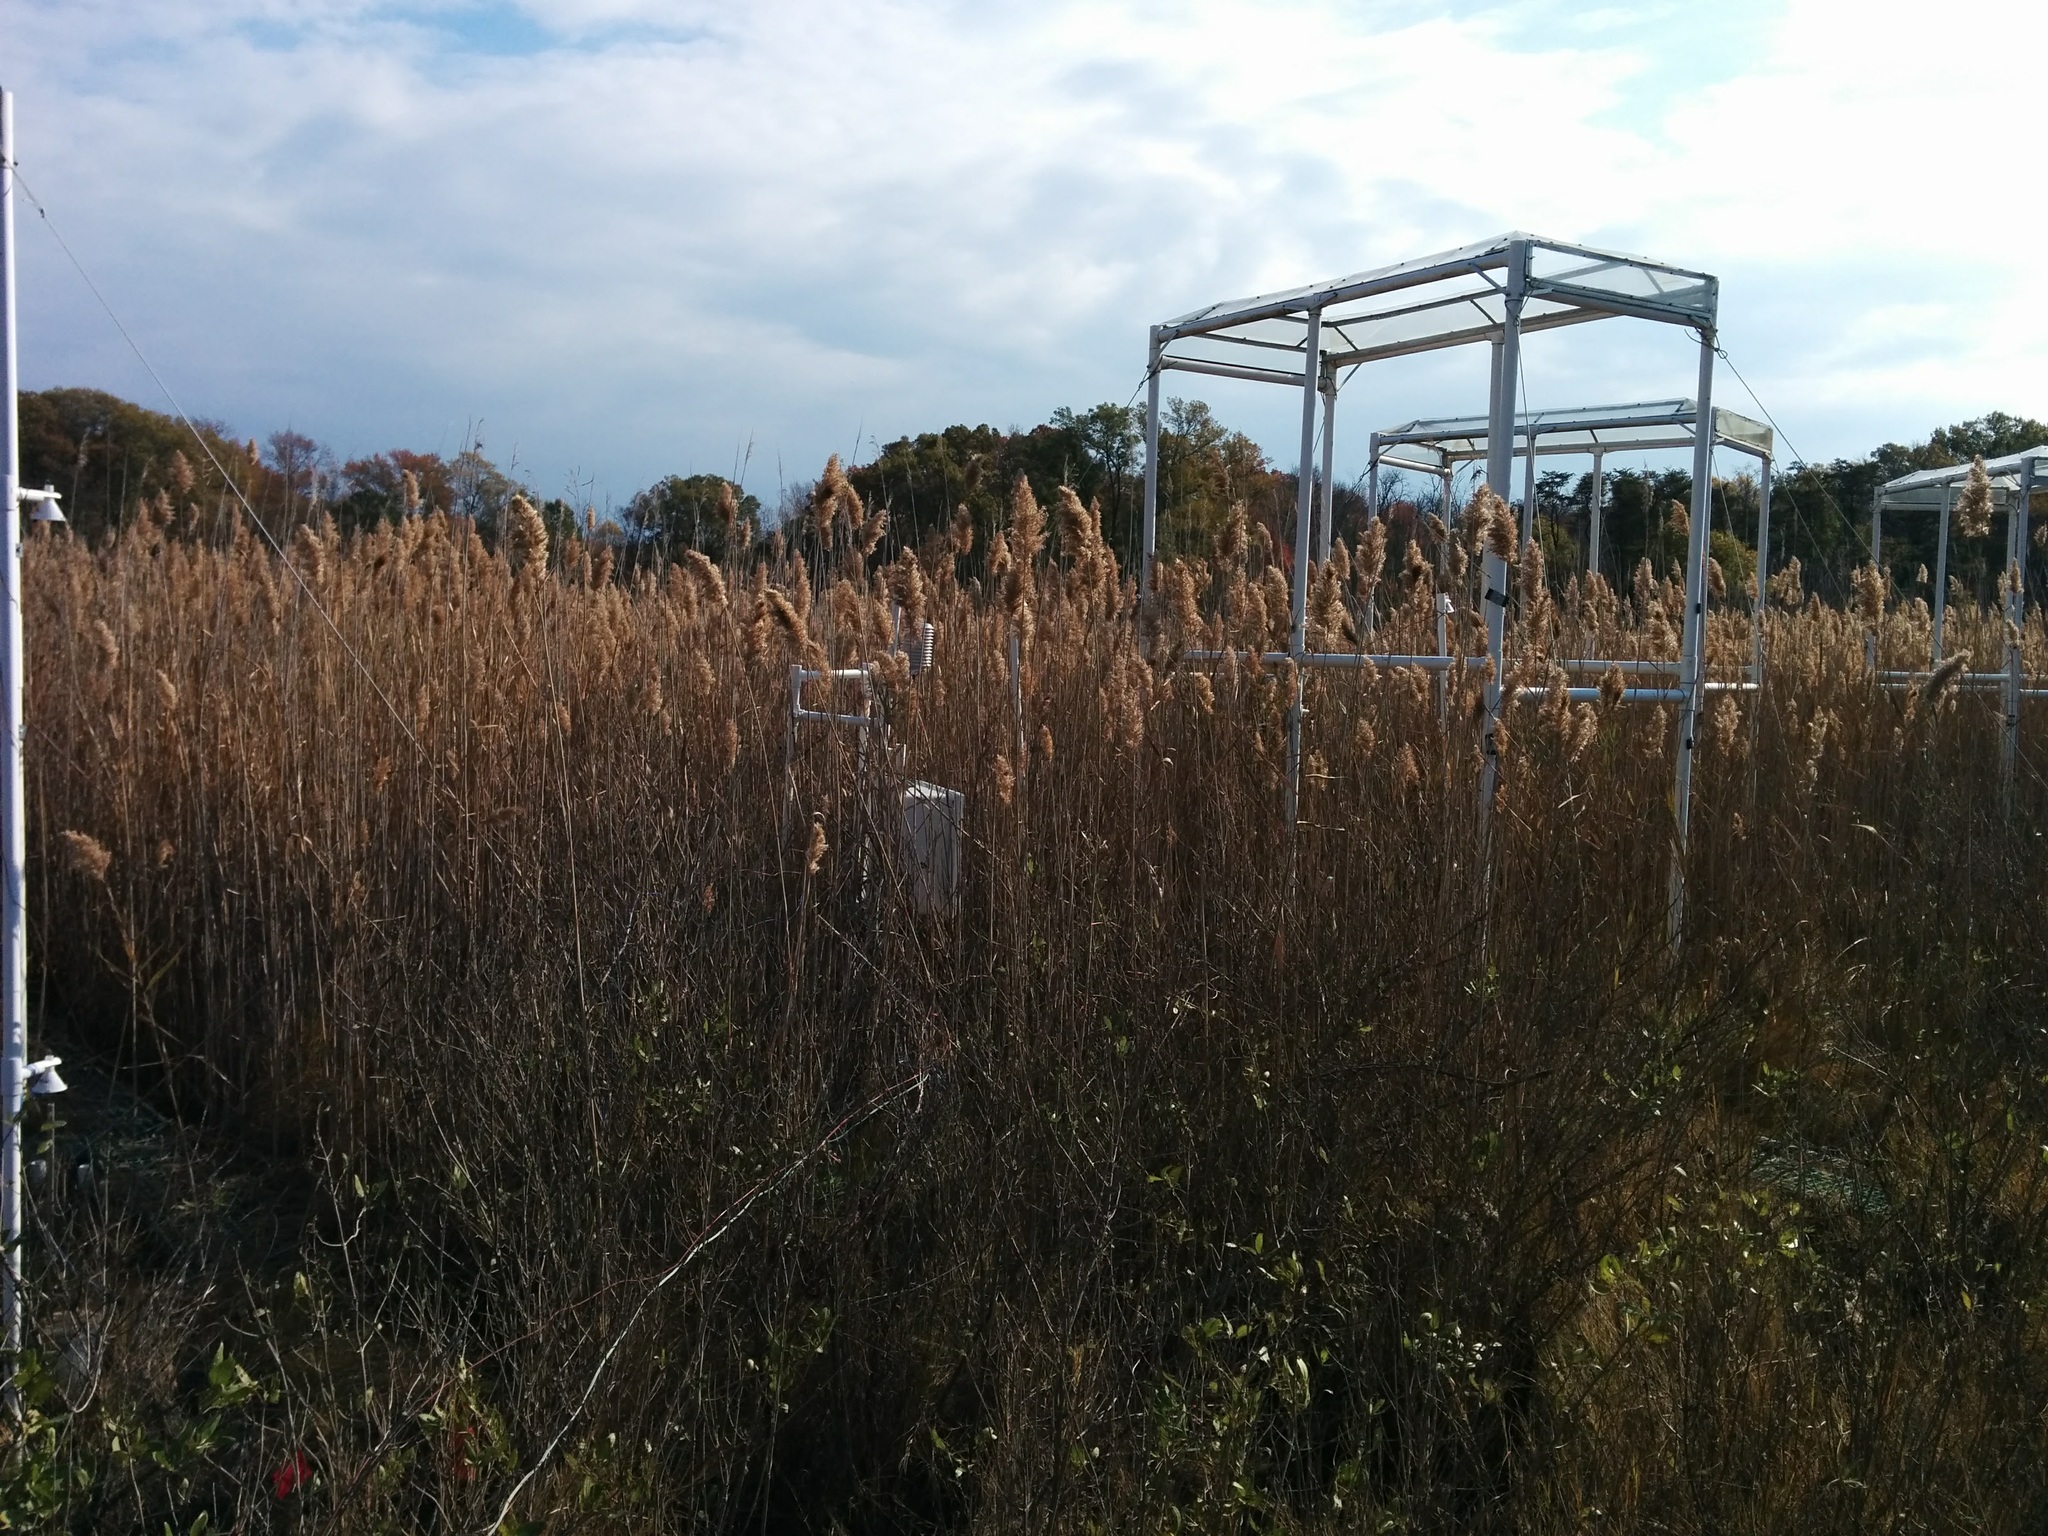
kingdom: Plantae
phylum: Tracheophyta
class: Liliopsida
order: Poales
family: Poaceae
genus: Phragmites
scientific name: Phragmites australis
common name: Common reed
